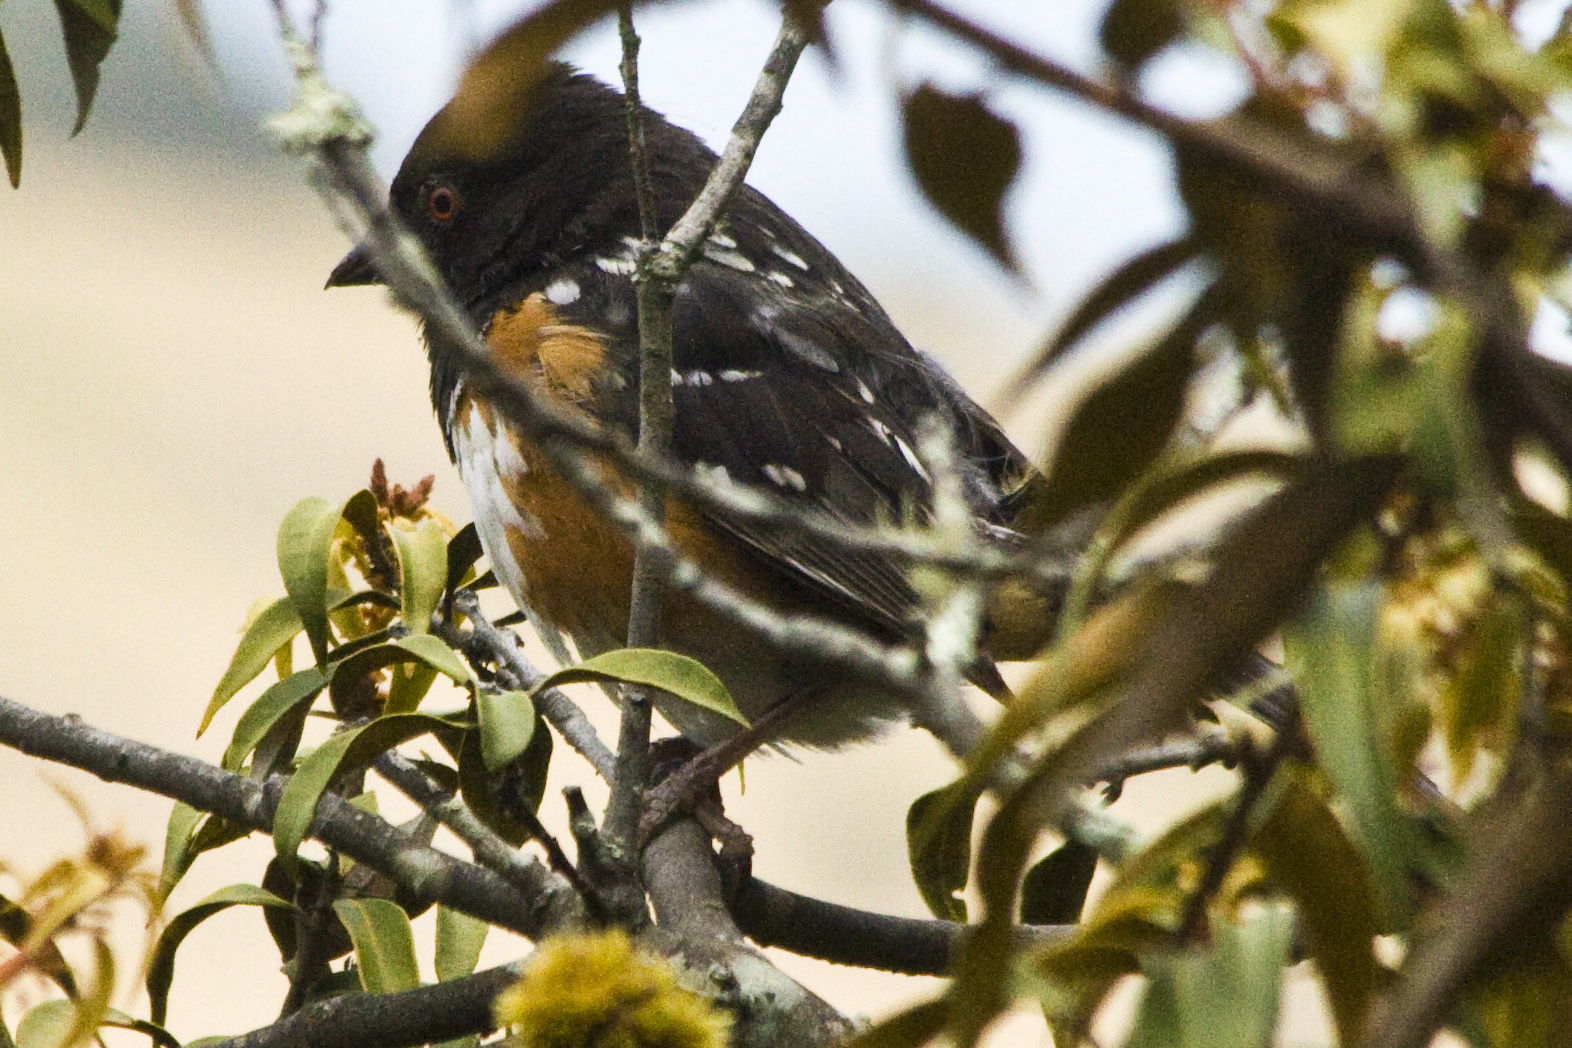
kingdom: Animalia
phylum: Chordata
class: Aves
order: Passeriformes
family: Passerellidae
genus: Pipilo
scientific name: Pipilo maculatus
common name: Spotted towhee
